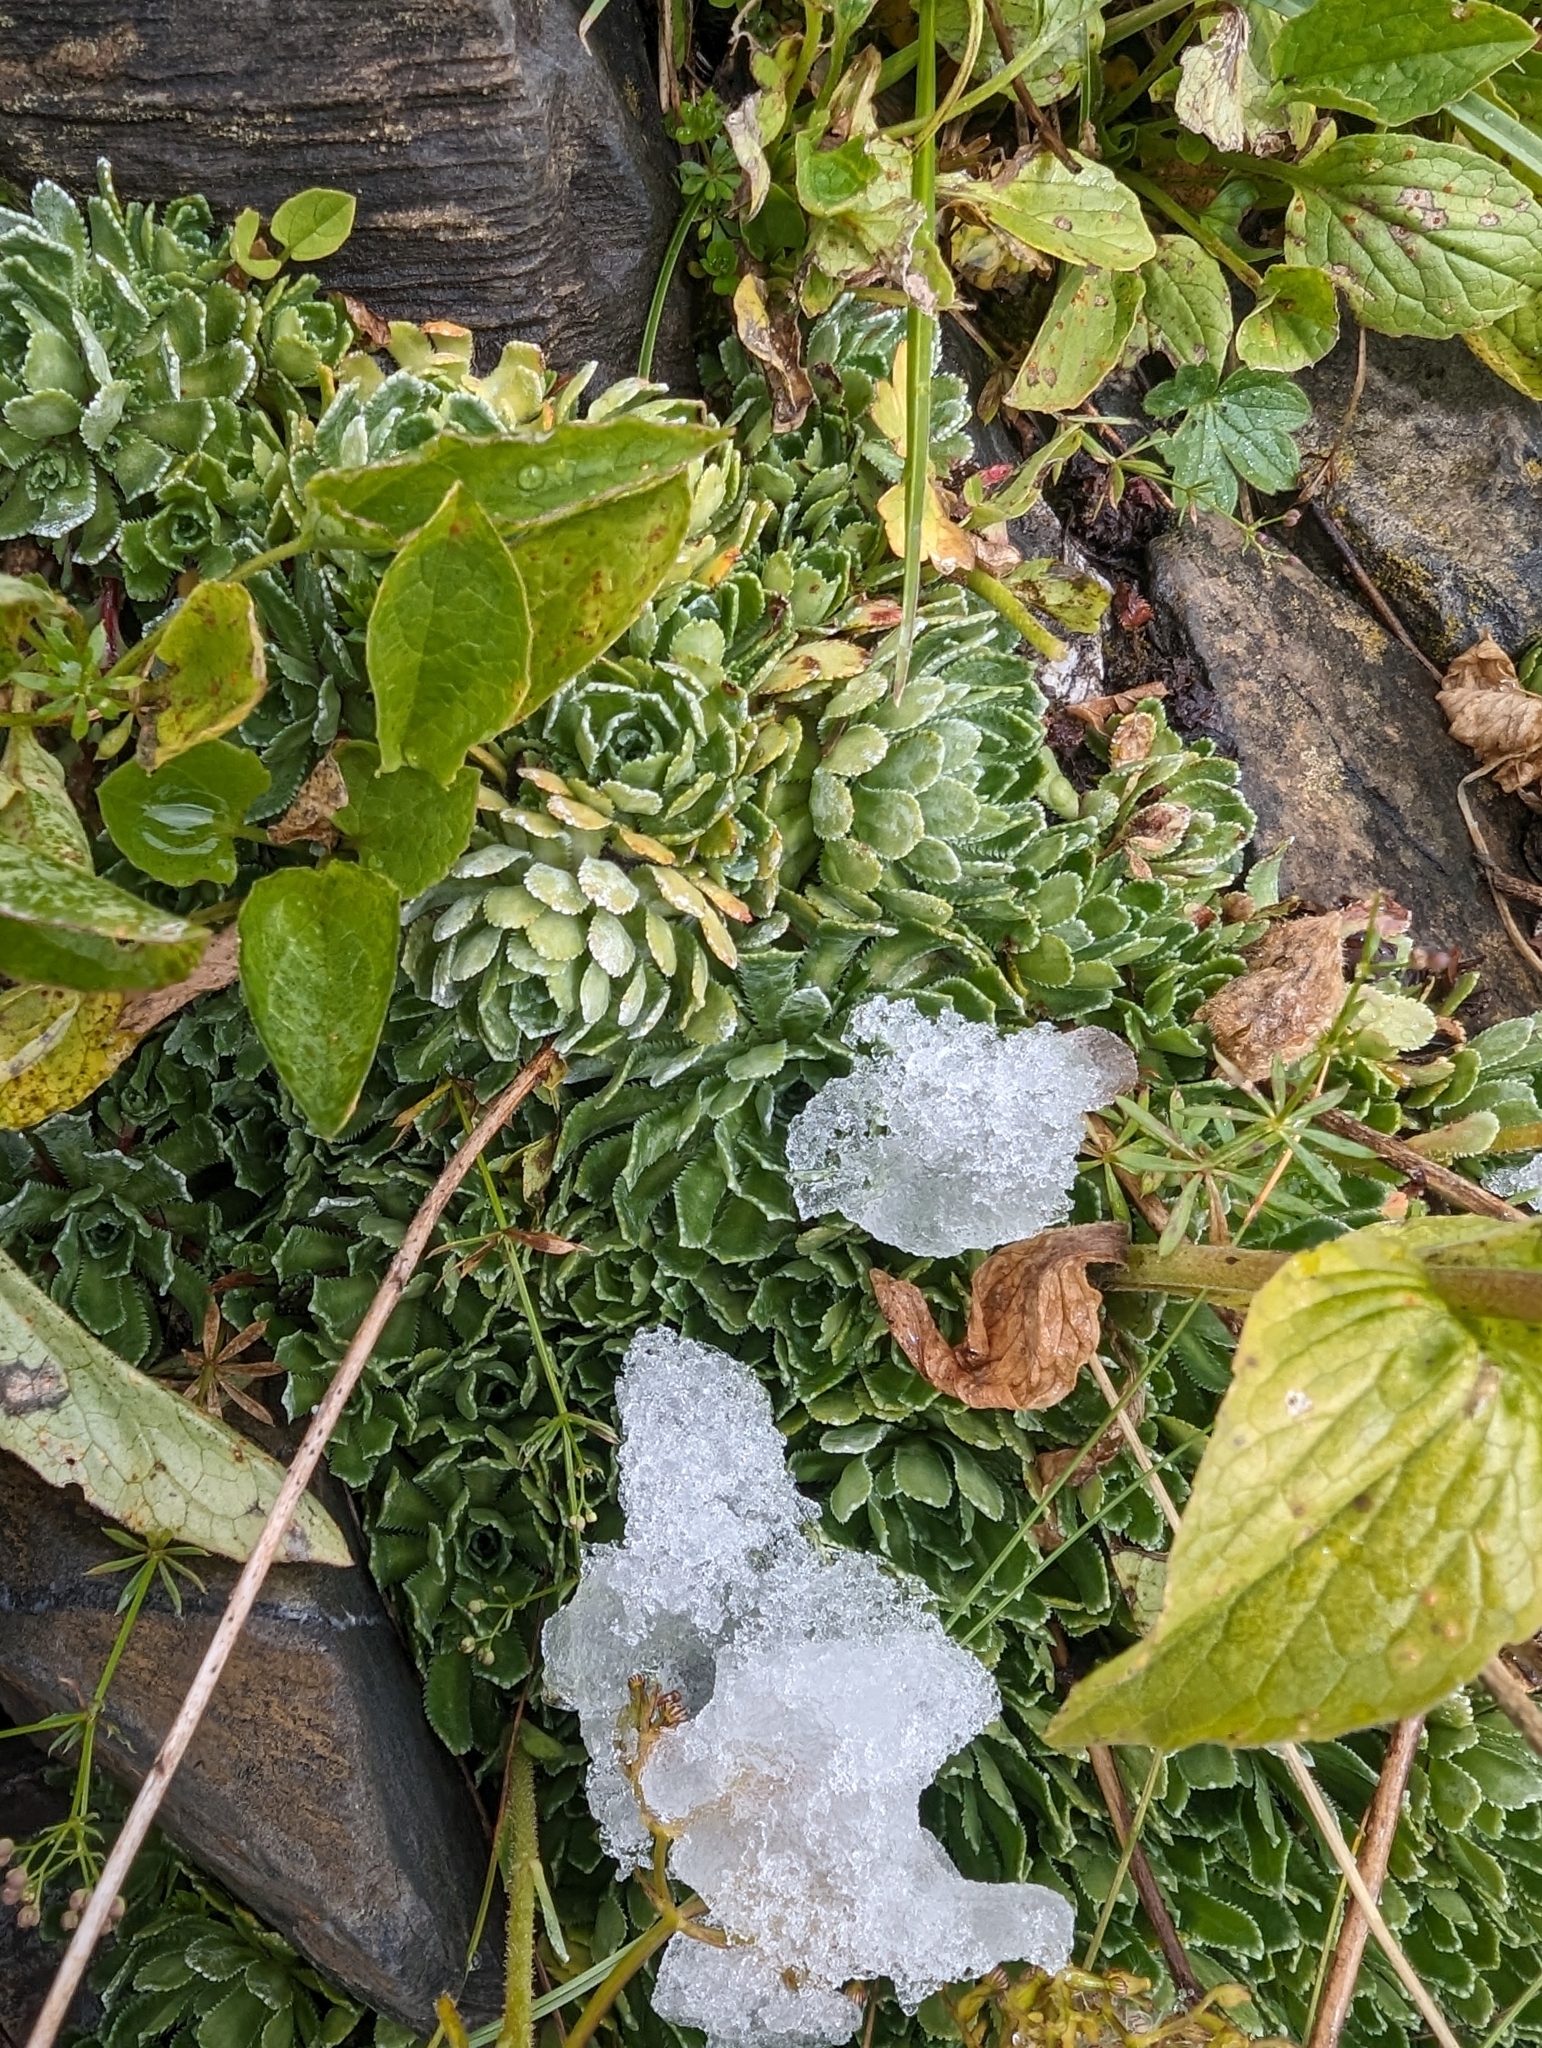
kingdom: Plantae
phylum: Tracheophyta
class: Magnoliopsida
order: Saxifragales
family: Saxifragaceae
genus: Saxifraga
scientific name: Saxifraga paniculata
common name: Livelong saxifrage
